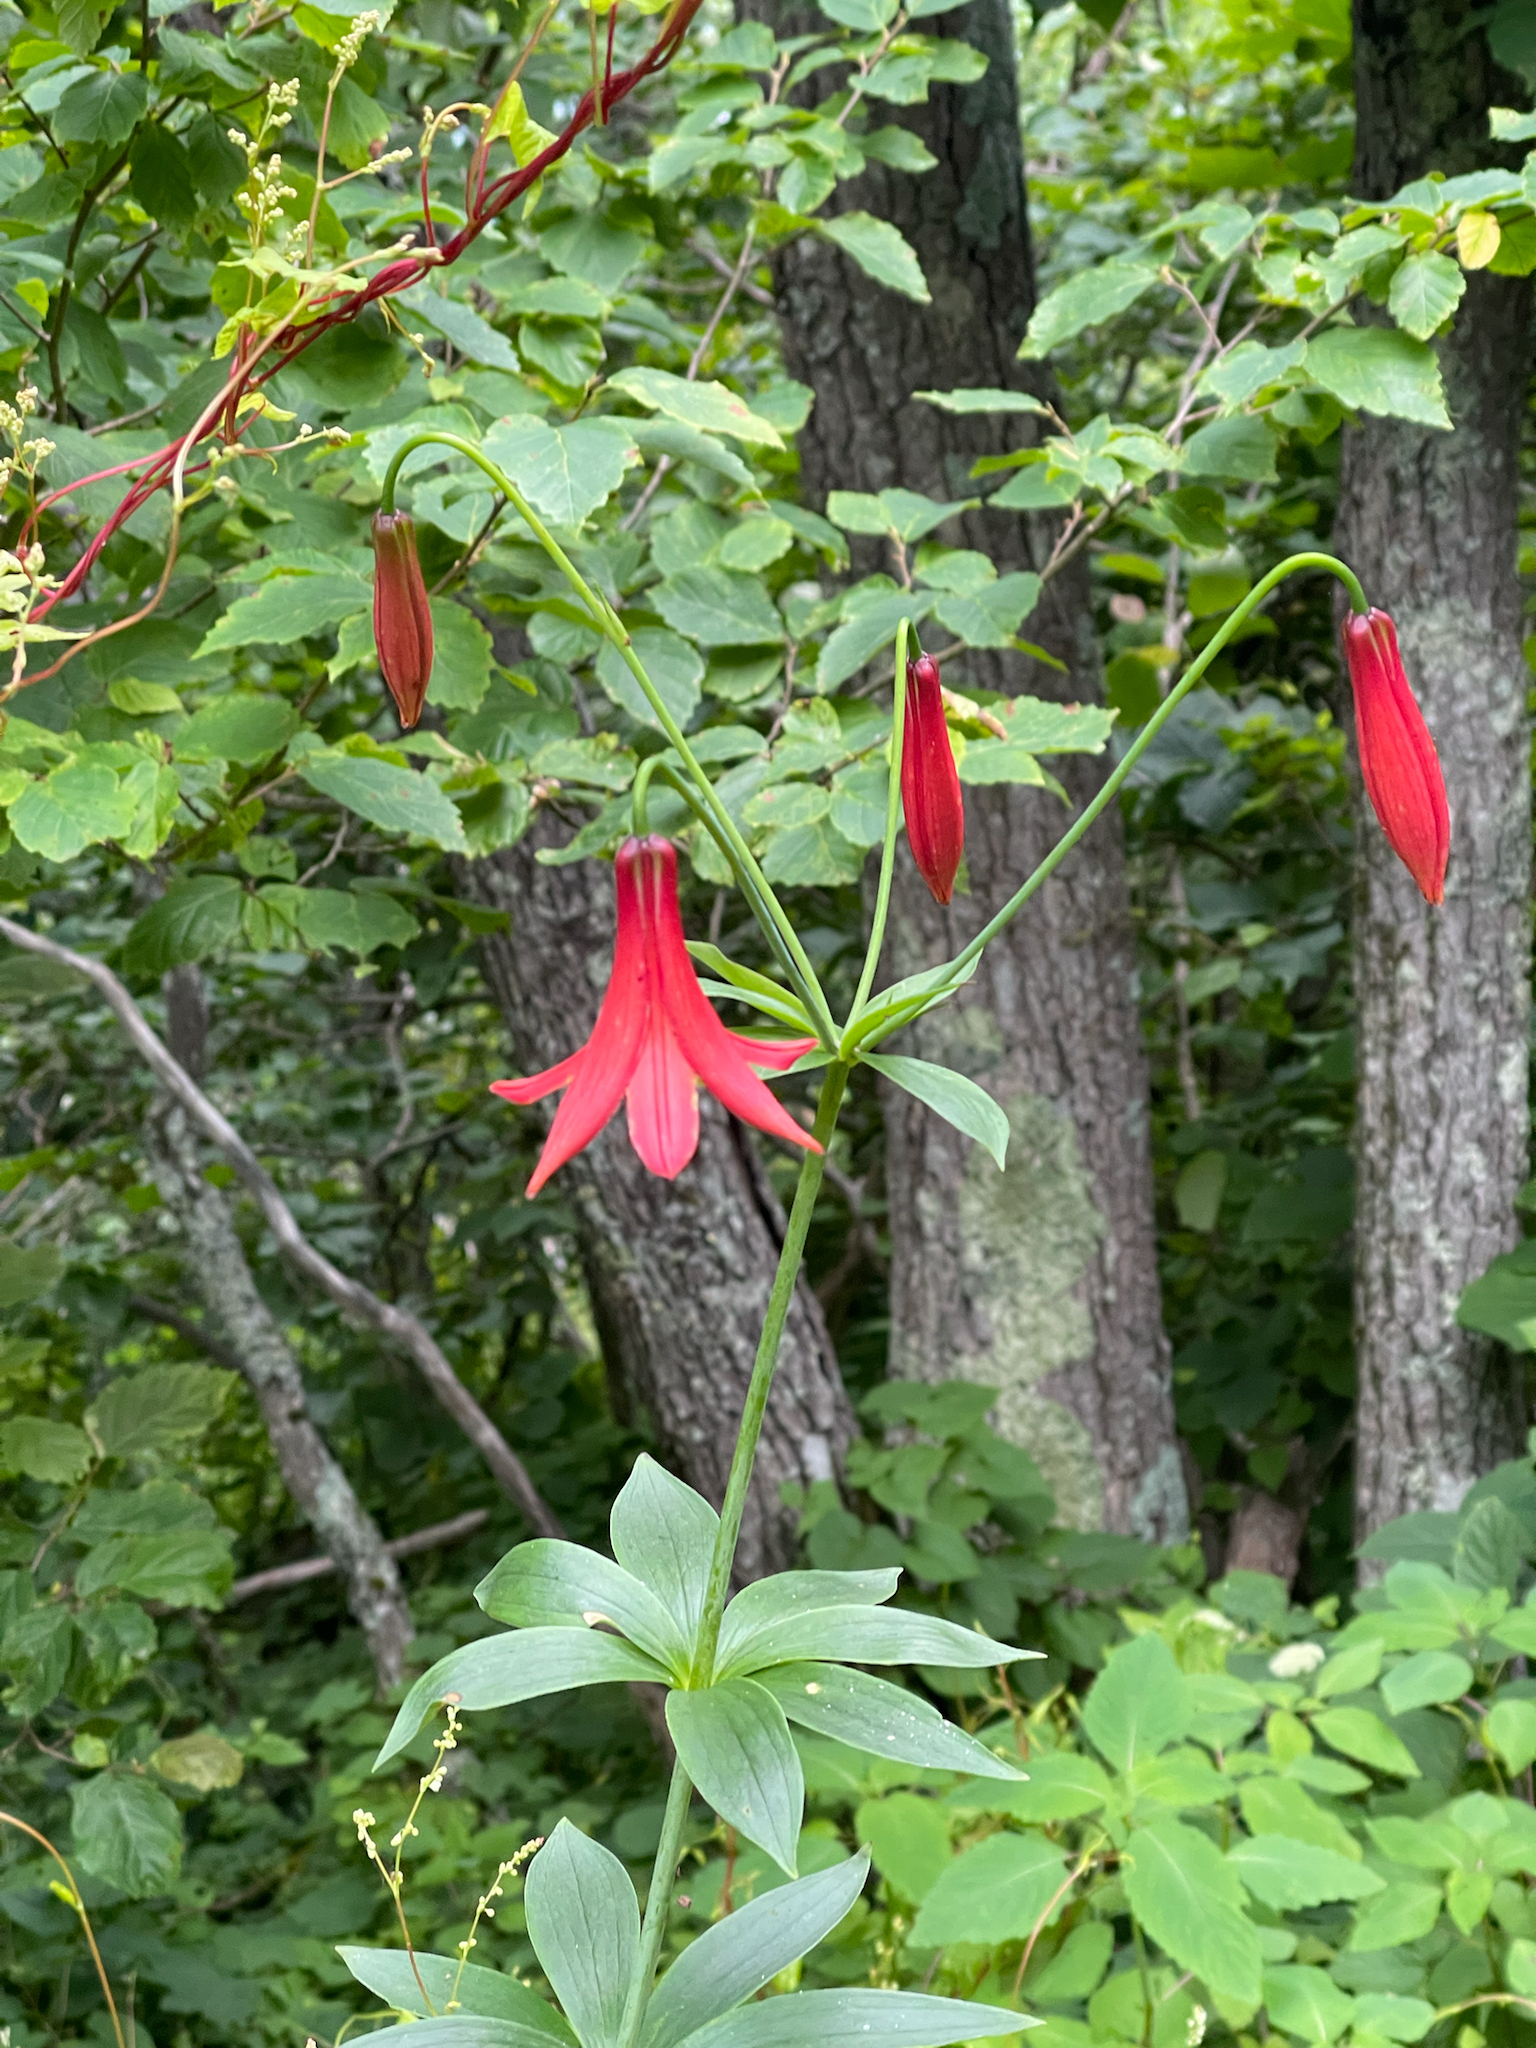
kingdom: Plantae
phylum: Tracheophyta
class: Liliopsida
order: Liliales
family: Liliaceae
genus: Lilium
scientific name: Lilium canadense
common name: Canada lily
